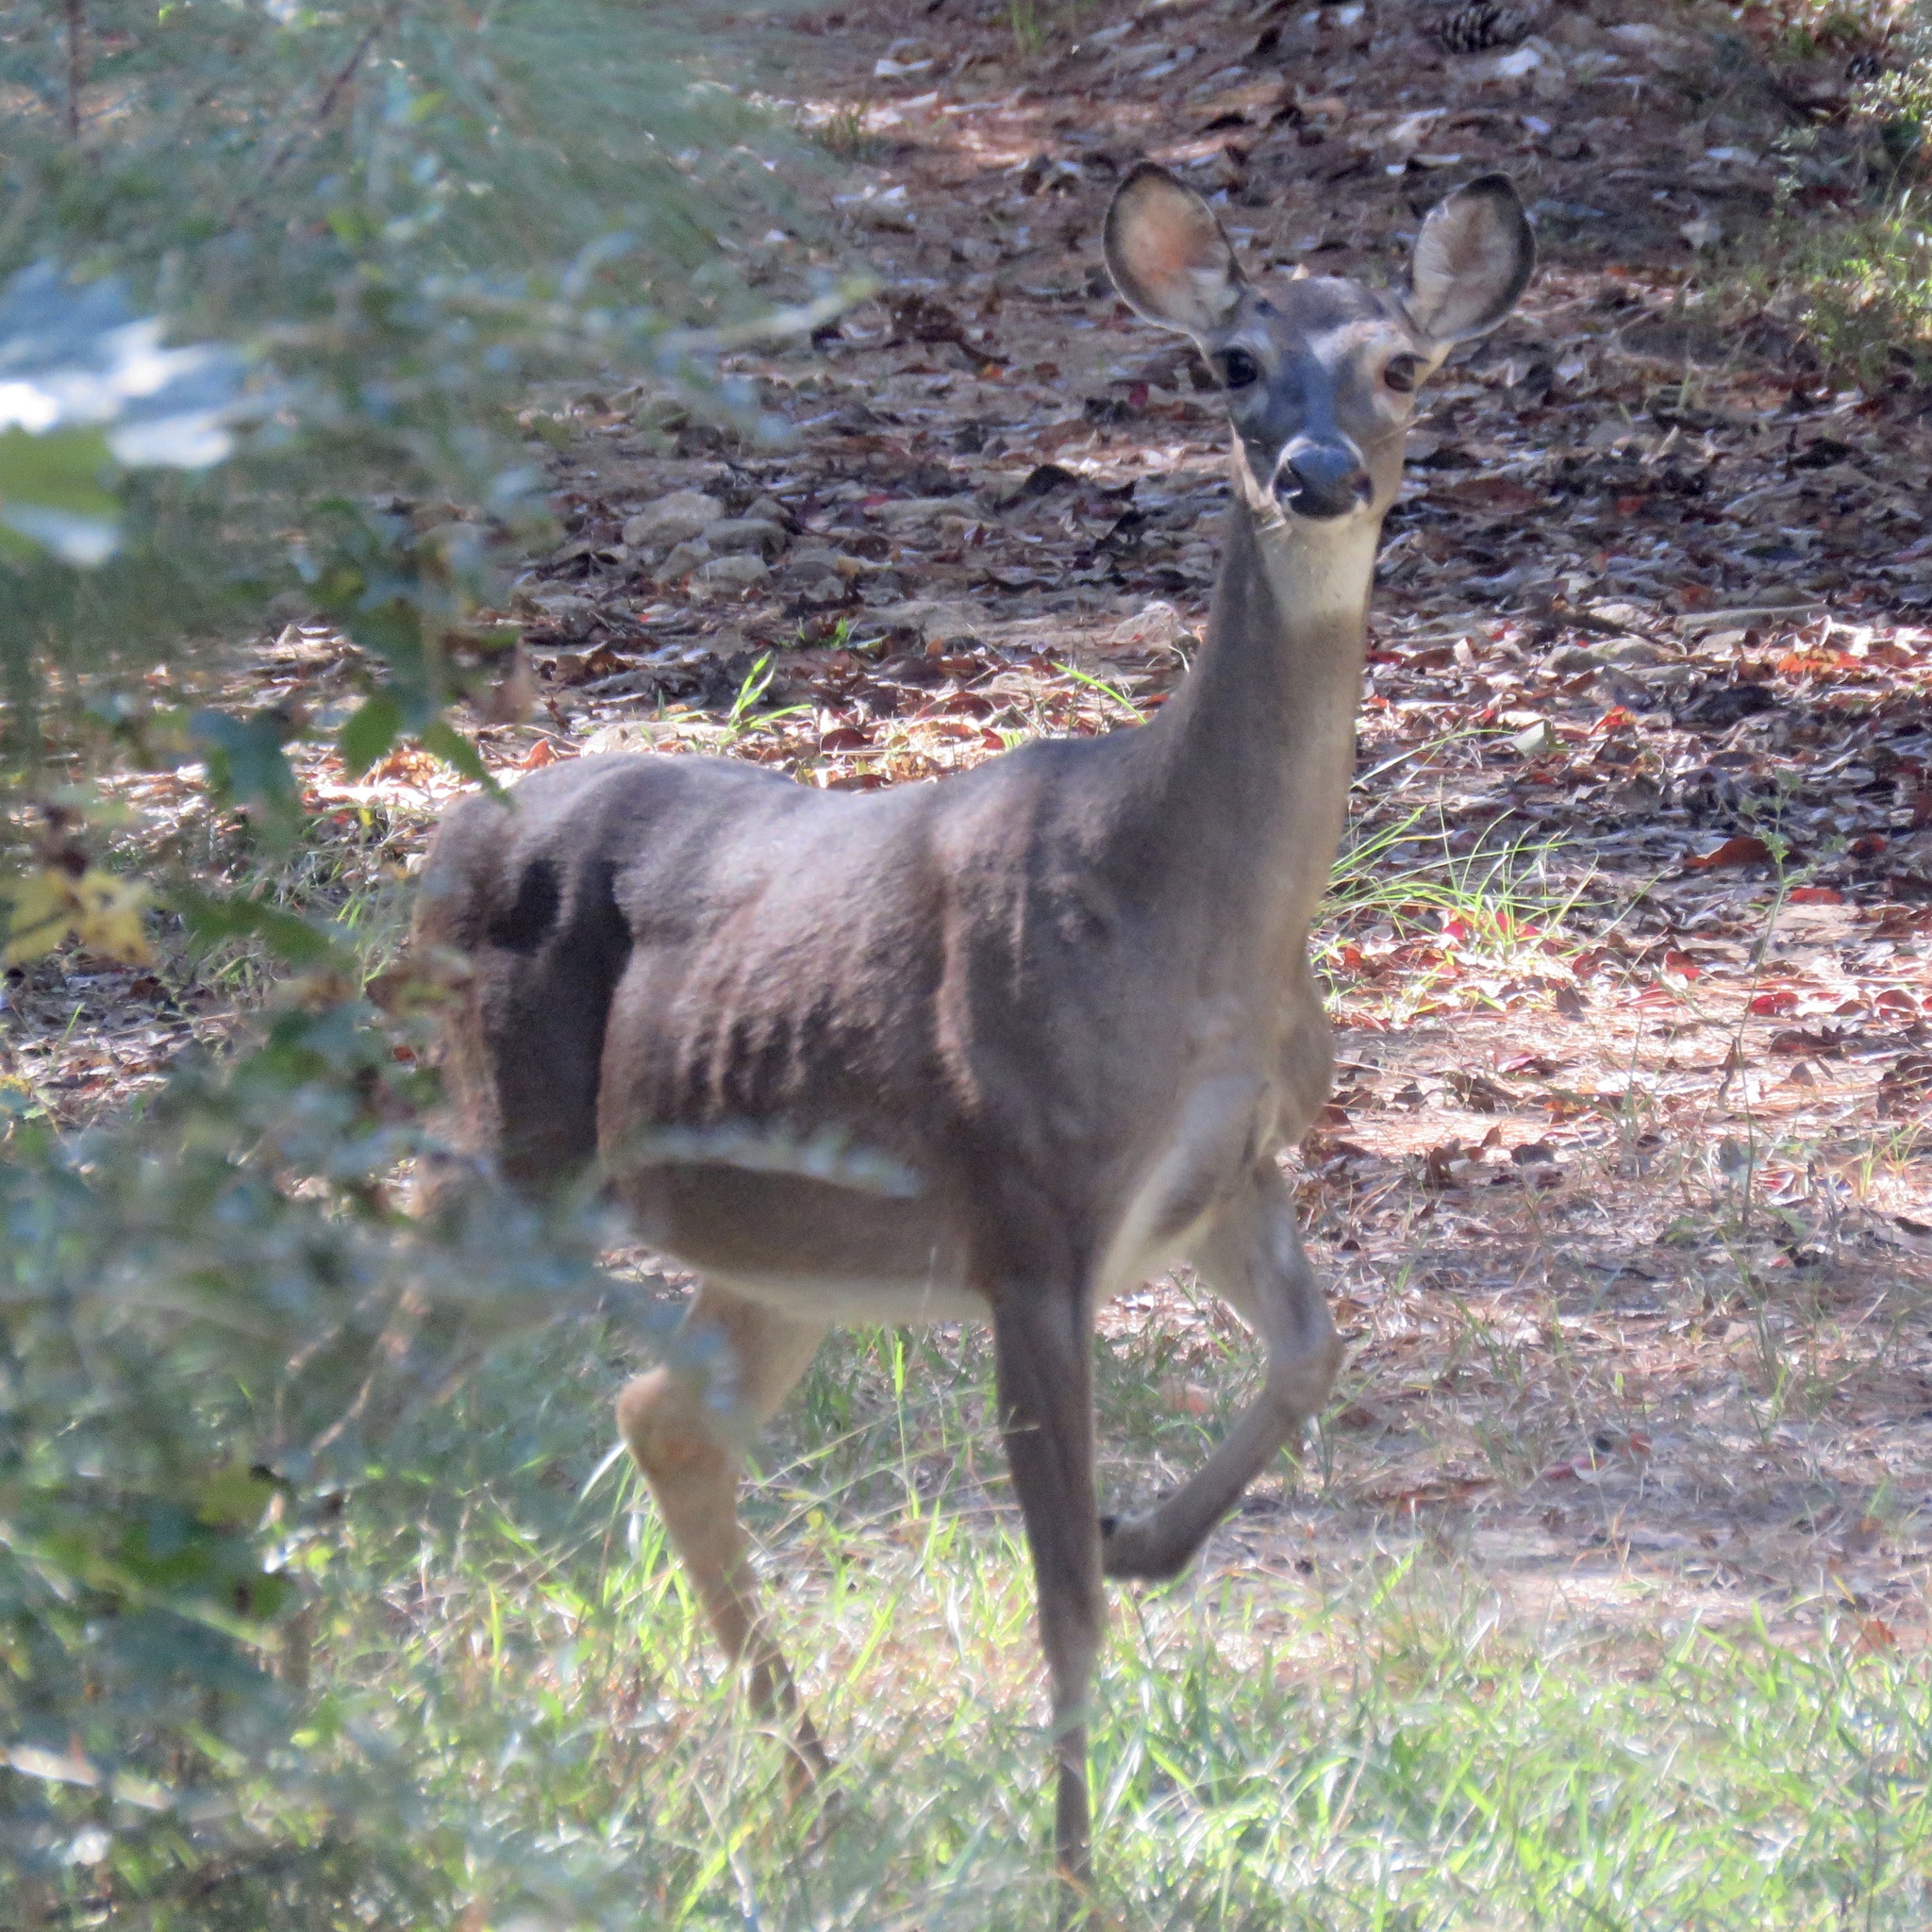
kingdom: Animalia
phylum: Chordata
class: Mammalia
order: Artiodactyla
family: Cervidae
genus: Odocoileus
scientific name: Odocoileus virginianus
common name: White-tailed deer
